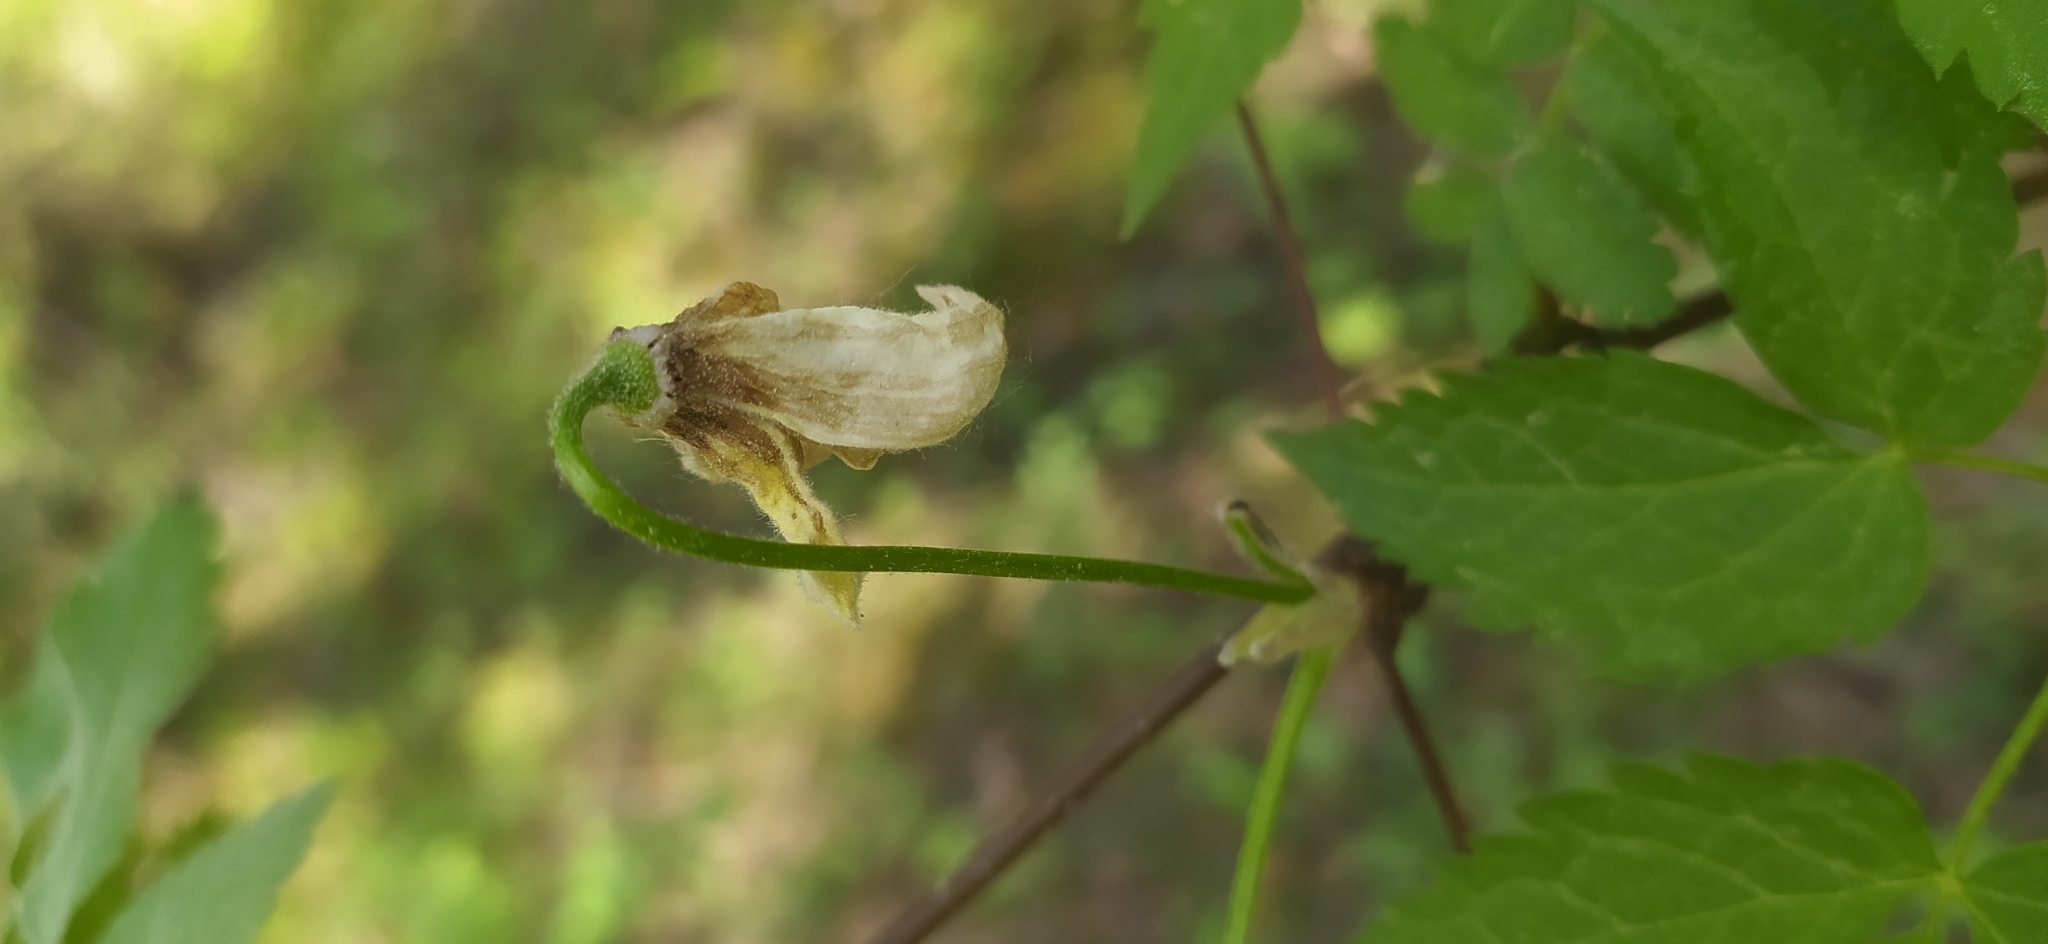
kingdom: Plantae
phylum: Tracheophyta
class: Magnoliopsida
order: Ranunculales
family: Ranunculaceae
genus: Clematis
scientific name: Clematis sibirica
